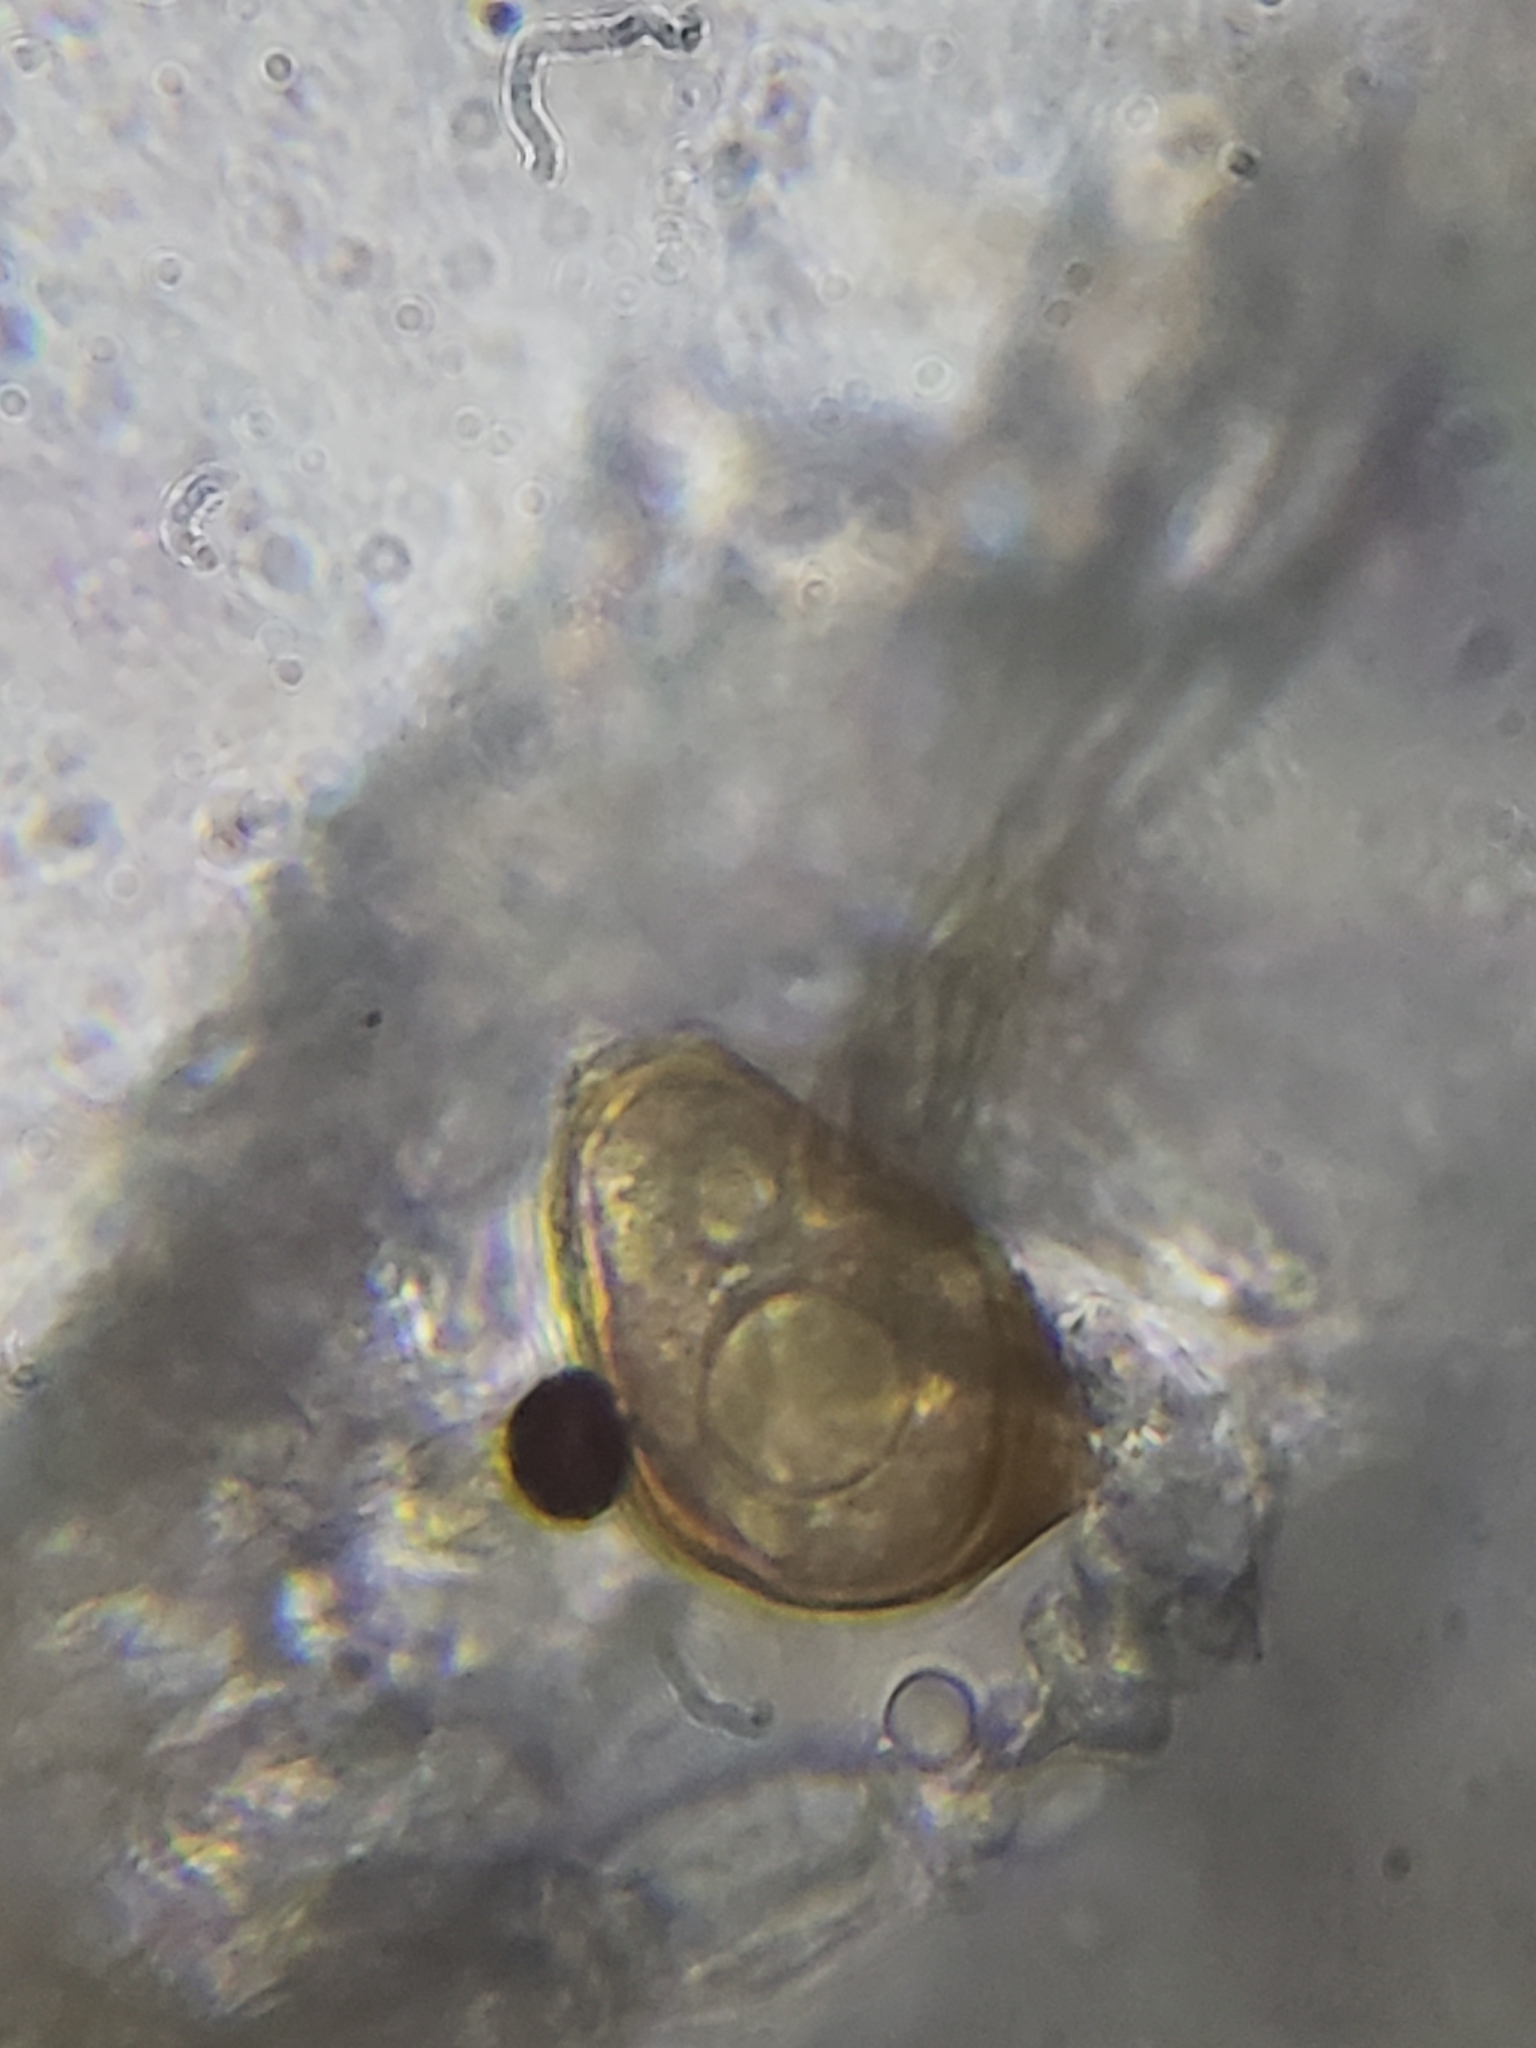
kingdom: Fungi
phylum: Entomophthoromycota
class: Entomophthoromycetes
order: Entomophthorales
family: Entomophthoraceae
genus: Entomophthora
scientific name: Entomophthora muscae
